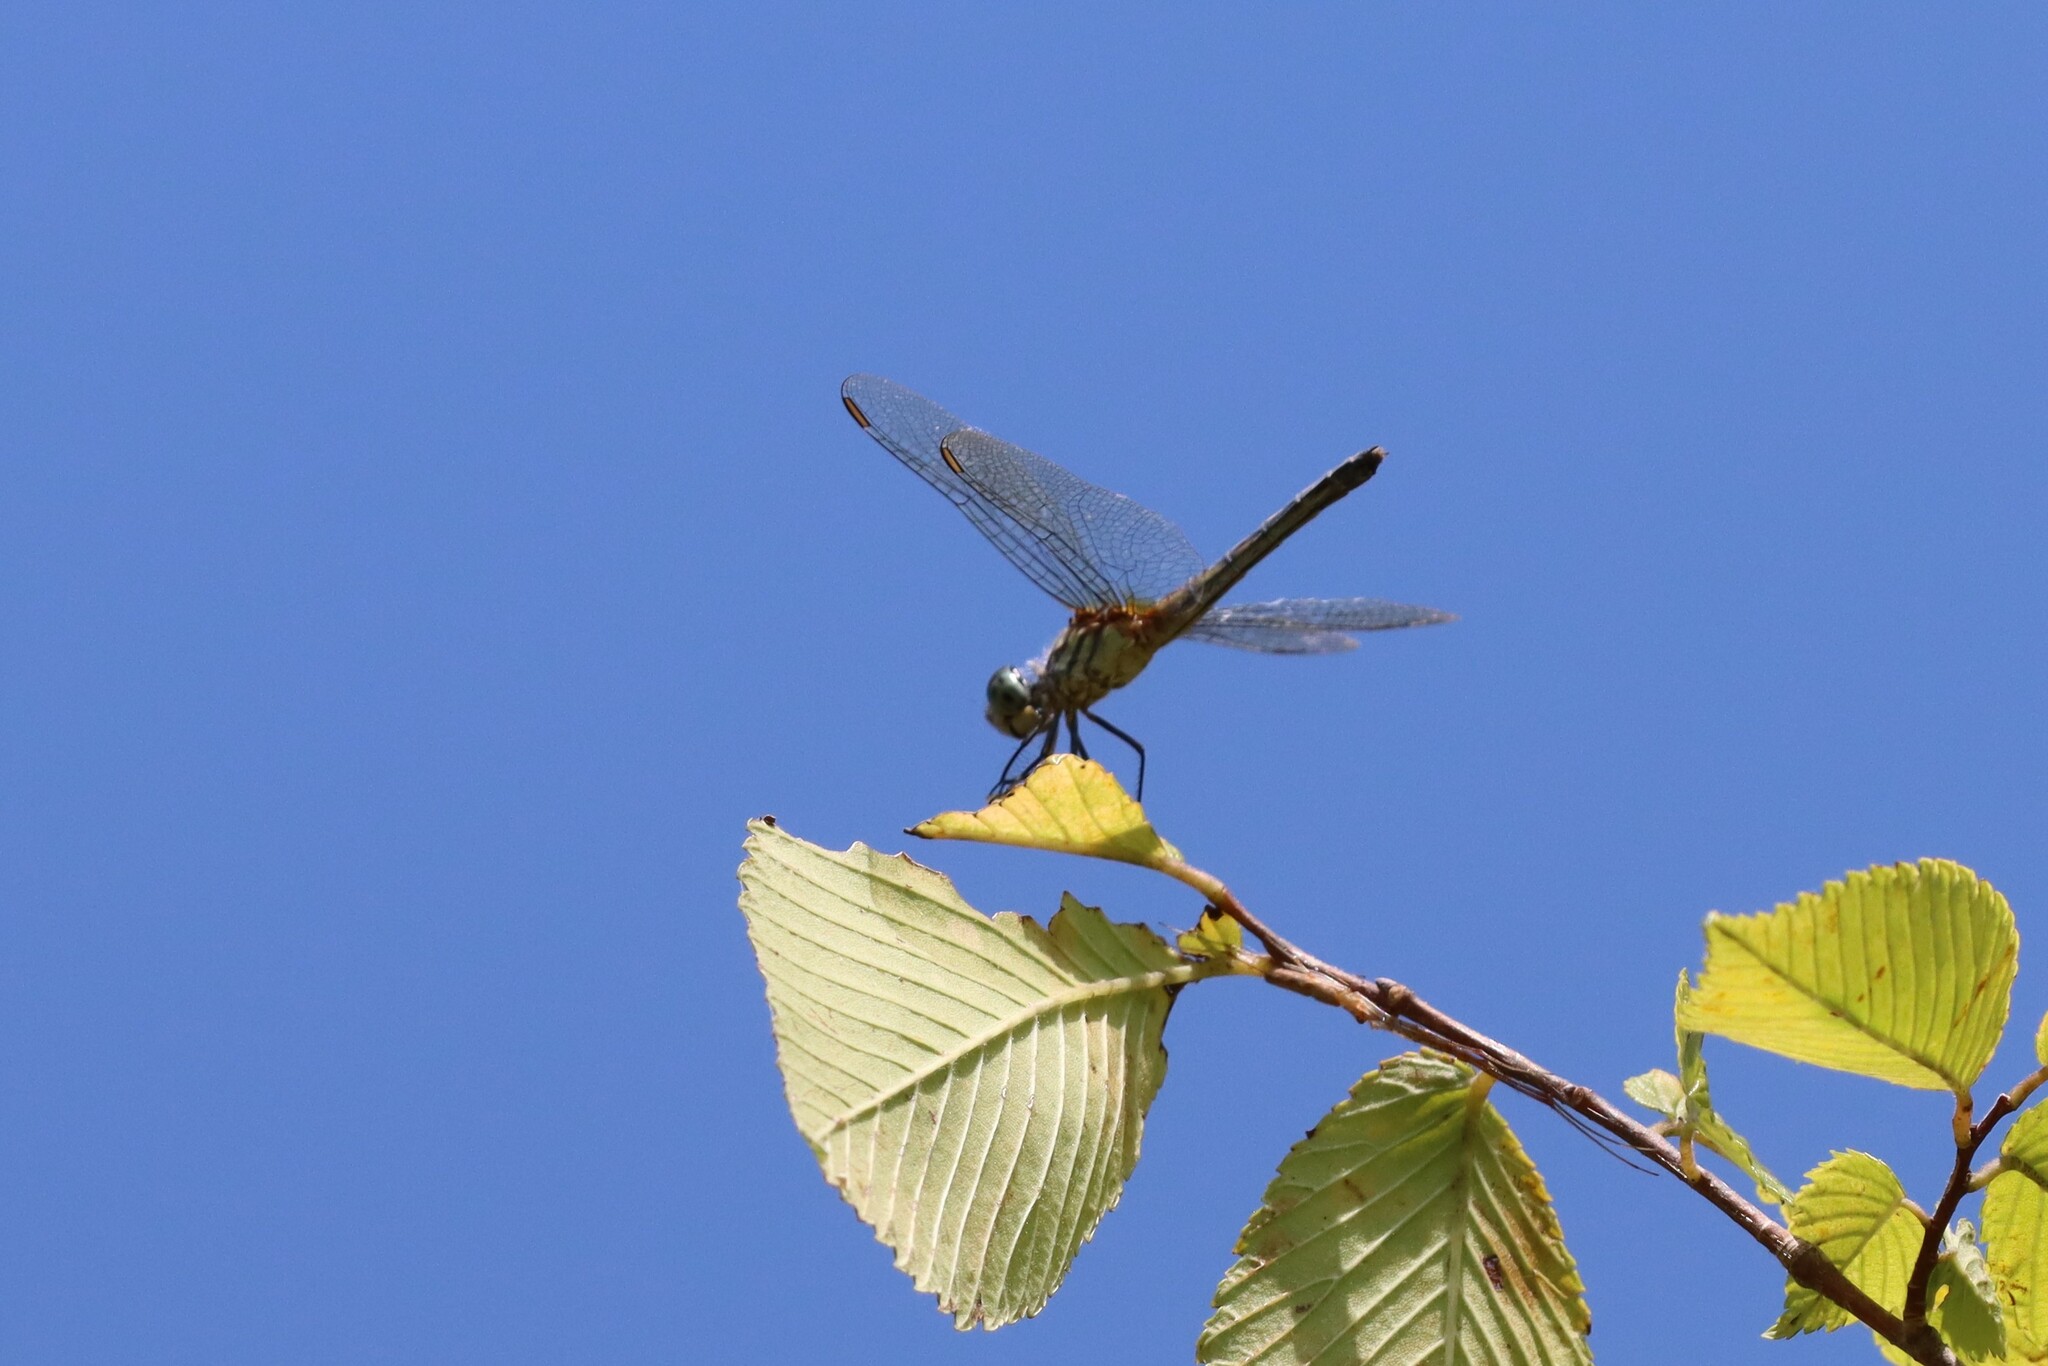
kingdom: Animalia
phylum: Arthropoda
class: Insecta
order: Odonata
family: Libellulidae
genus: Pachydiplax
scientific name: Pachydiplax longipennis
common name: Blue dasher
